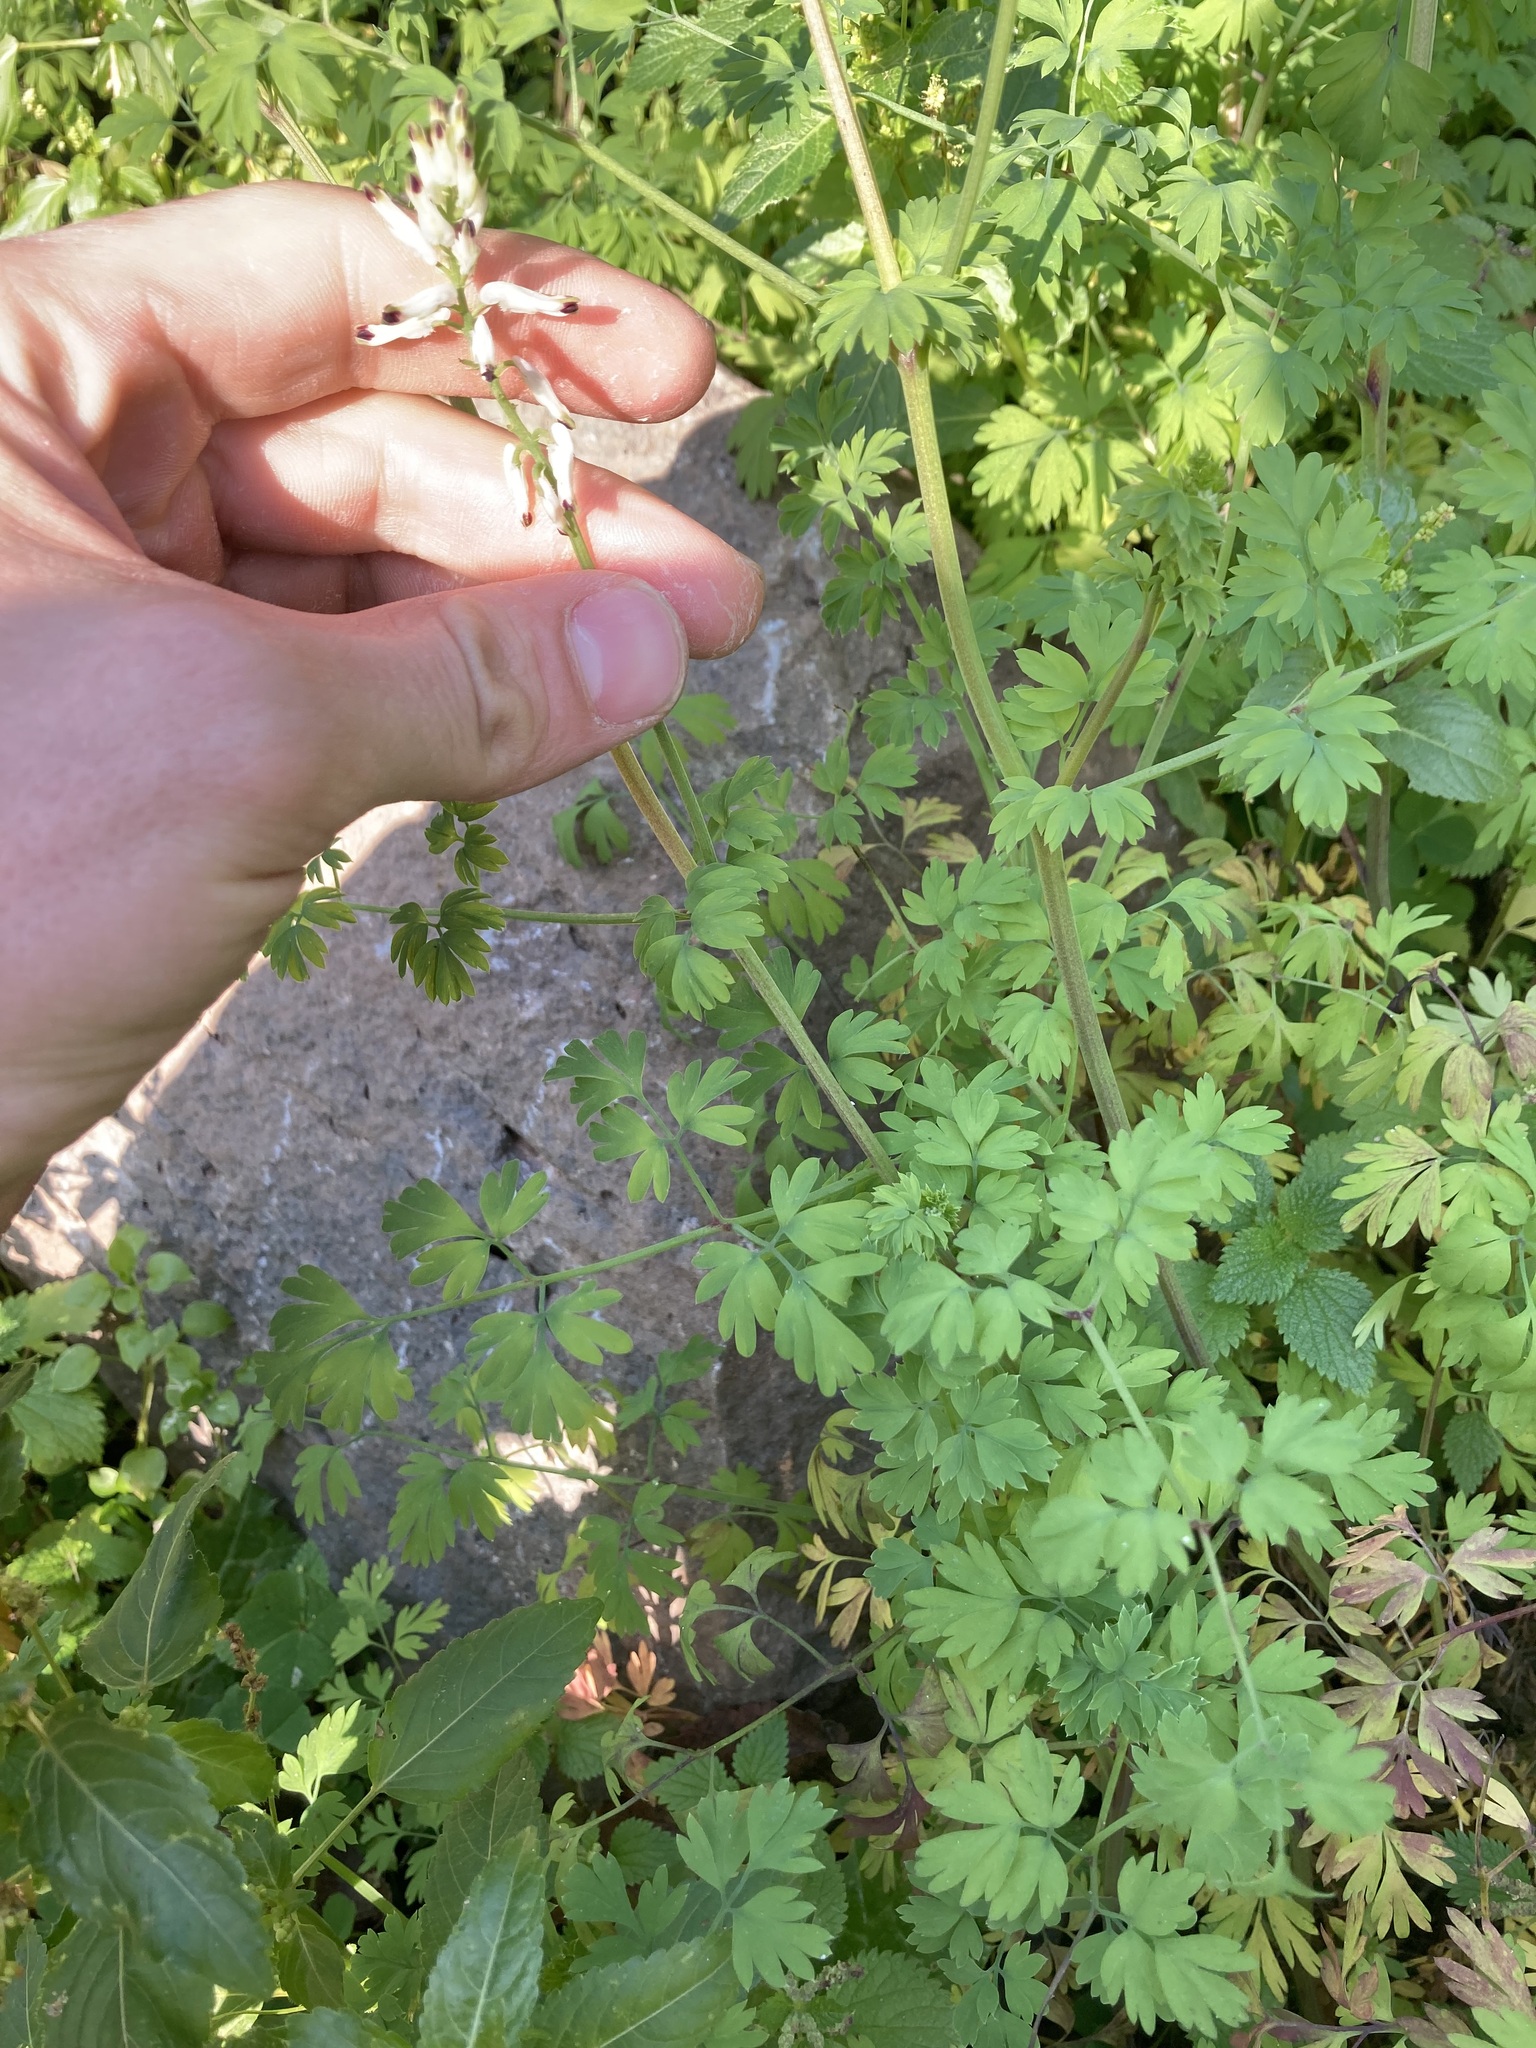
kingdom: Plantae
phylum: Tracheophyta
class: Magnoliopsida
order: Ranunculales
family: Papaveraceae
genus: Fumaria
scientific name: Fumaria capreolata
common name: White ramping-fumitory
